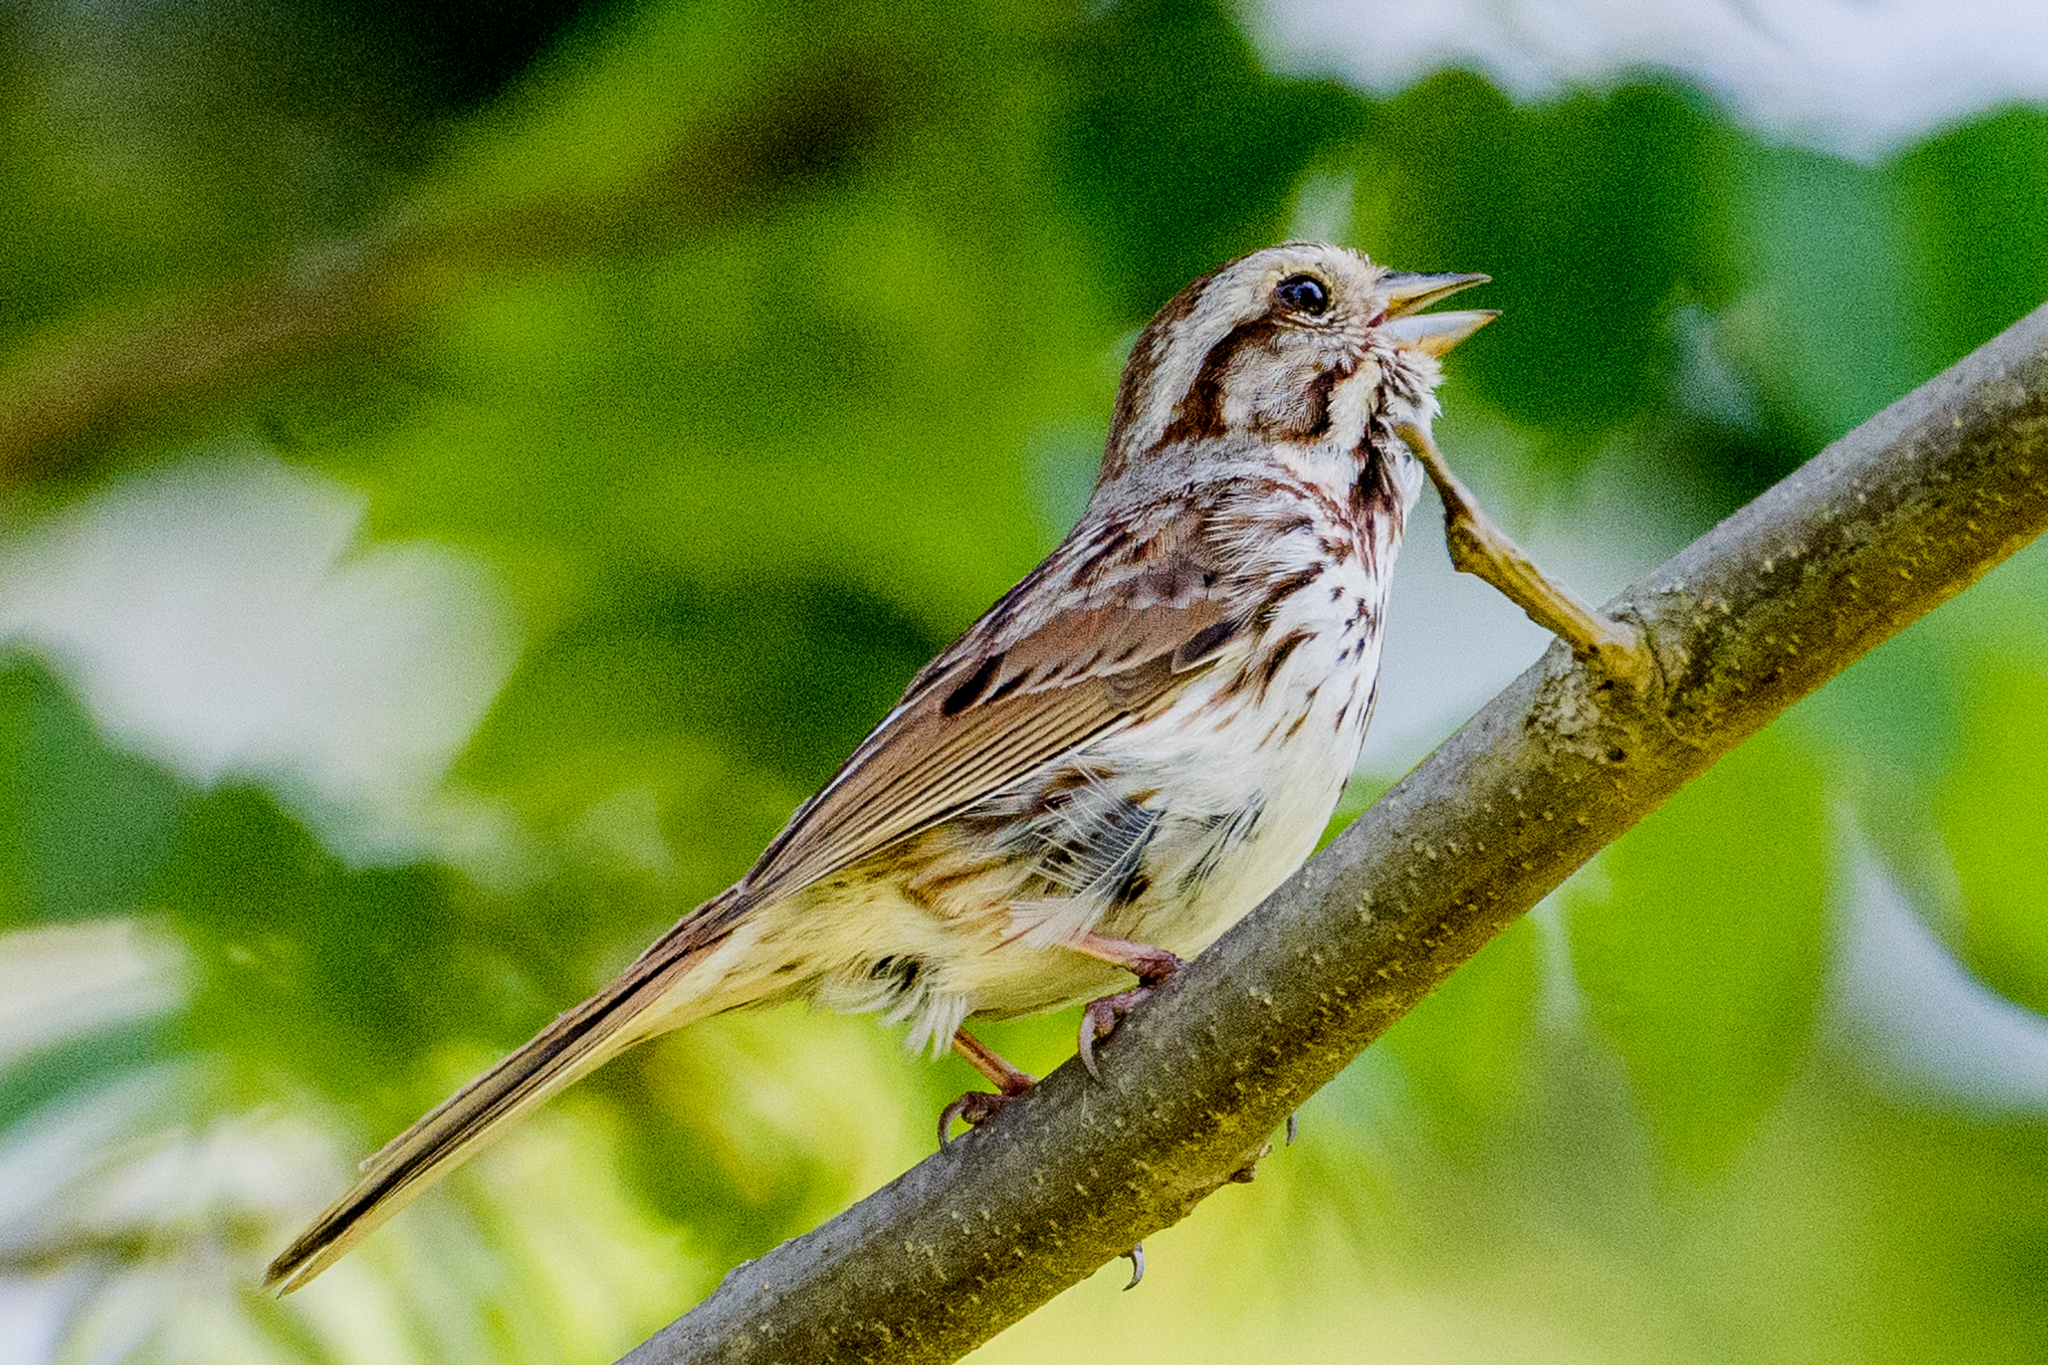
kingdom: Animalia
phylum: Chordata
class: Aves
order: Passeriformes
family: Passerellidae
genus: Melospiza
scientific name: Melospiza melodia
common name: Song sparrow
